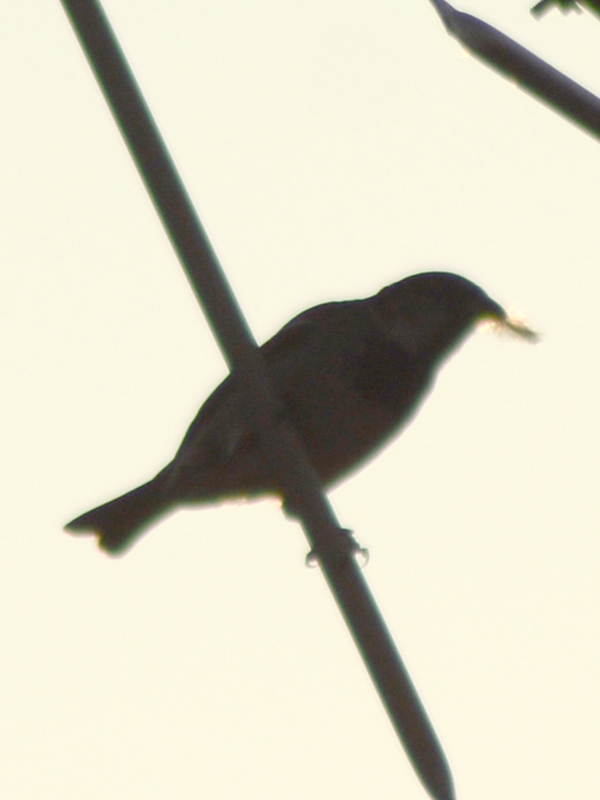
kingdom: Animalia
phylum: Chordata
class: Aves
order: Passeriformes
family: Passeridae
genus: Passer
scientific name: Passer domesticus
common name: House sparrow
